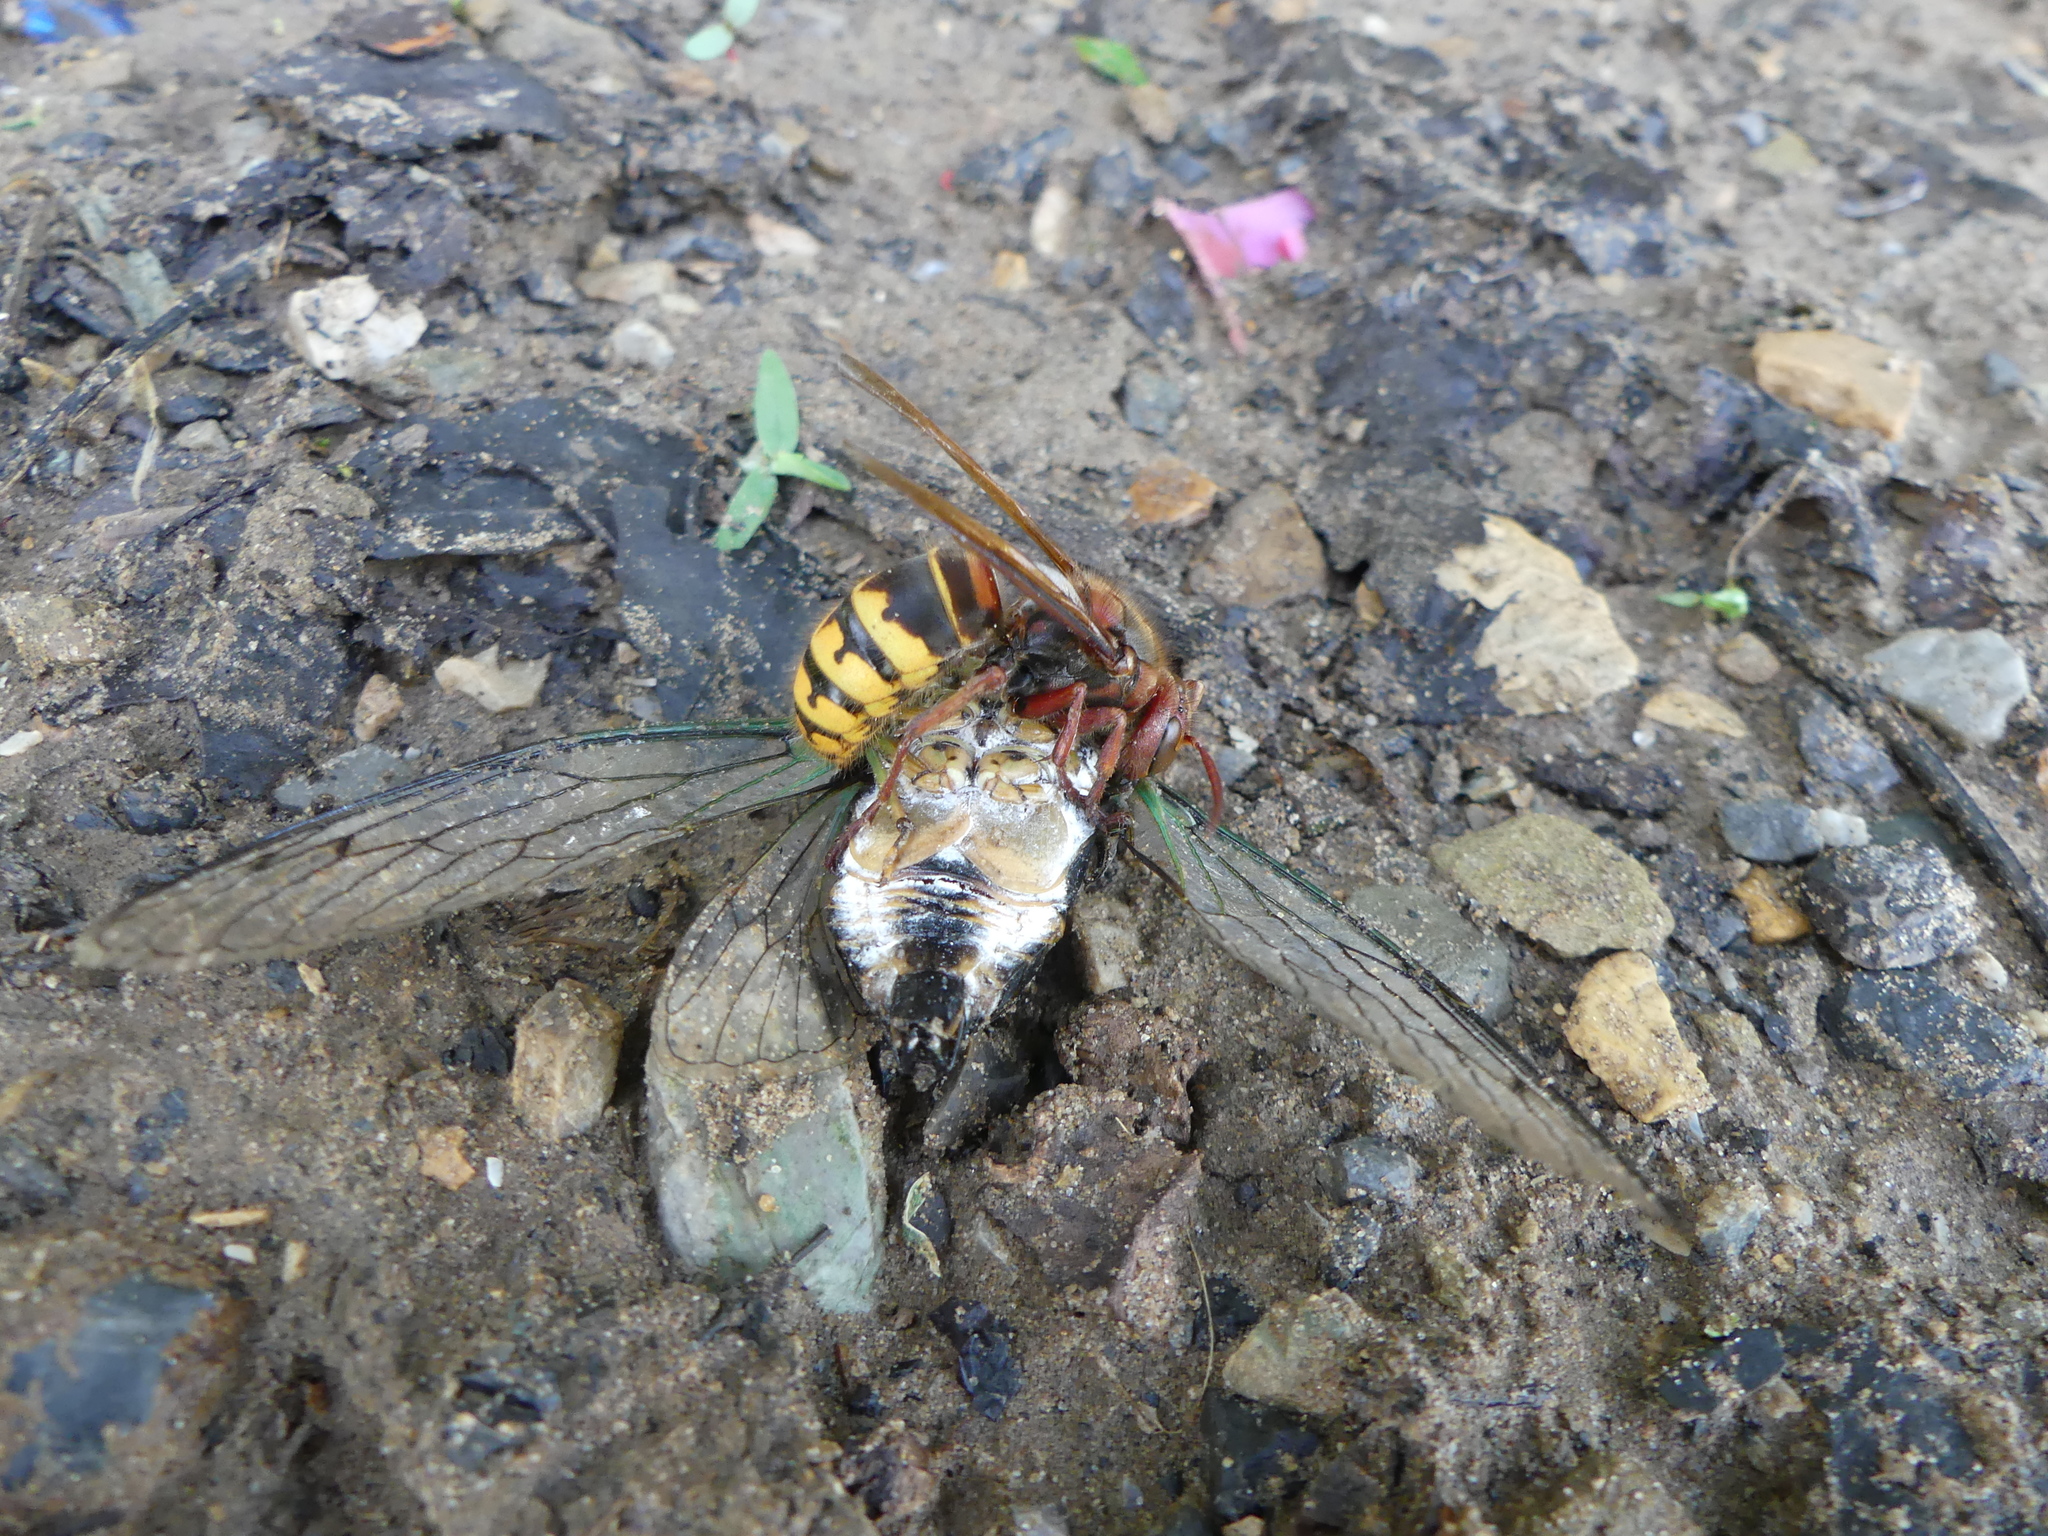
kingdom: Animalia
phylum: Arthropoda
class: Insecta
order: Hymenoptera
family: Vespidae
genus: Vespa
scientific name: Vespa crabro
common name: Hornet
